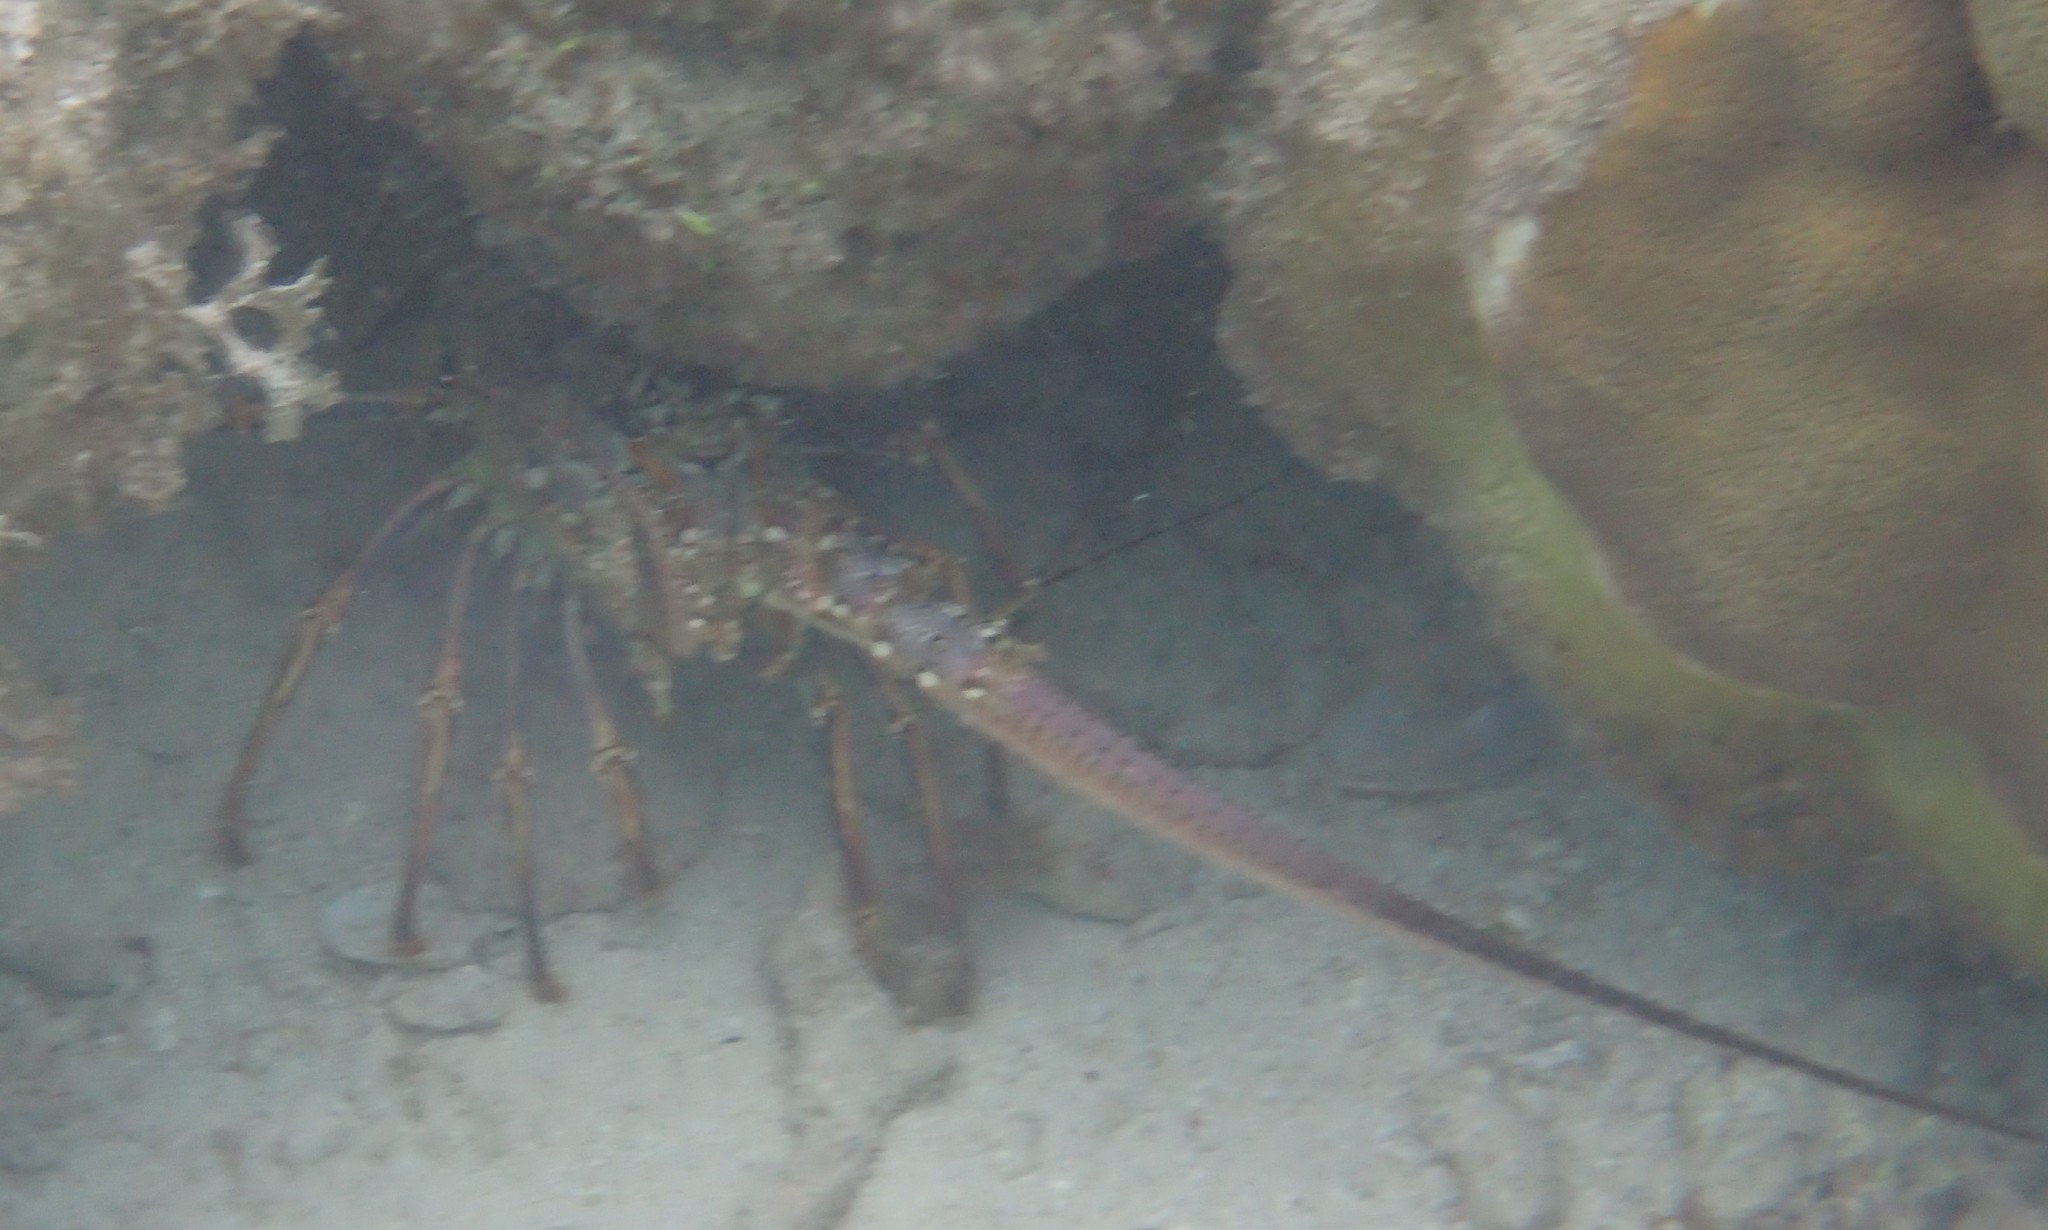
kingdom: Animalia
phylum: Arthropoda
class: Malacostraca
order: Decapoda
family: Palinuridae
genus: Panulirus
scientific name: Panulirus argus
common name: Caribbean spiny lobster
